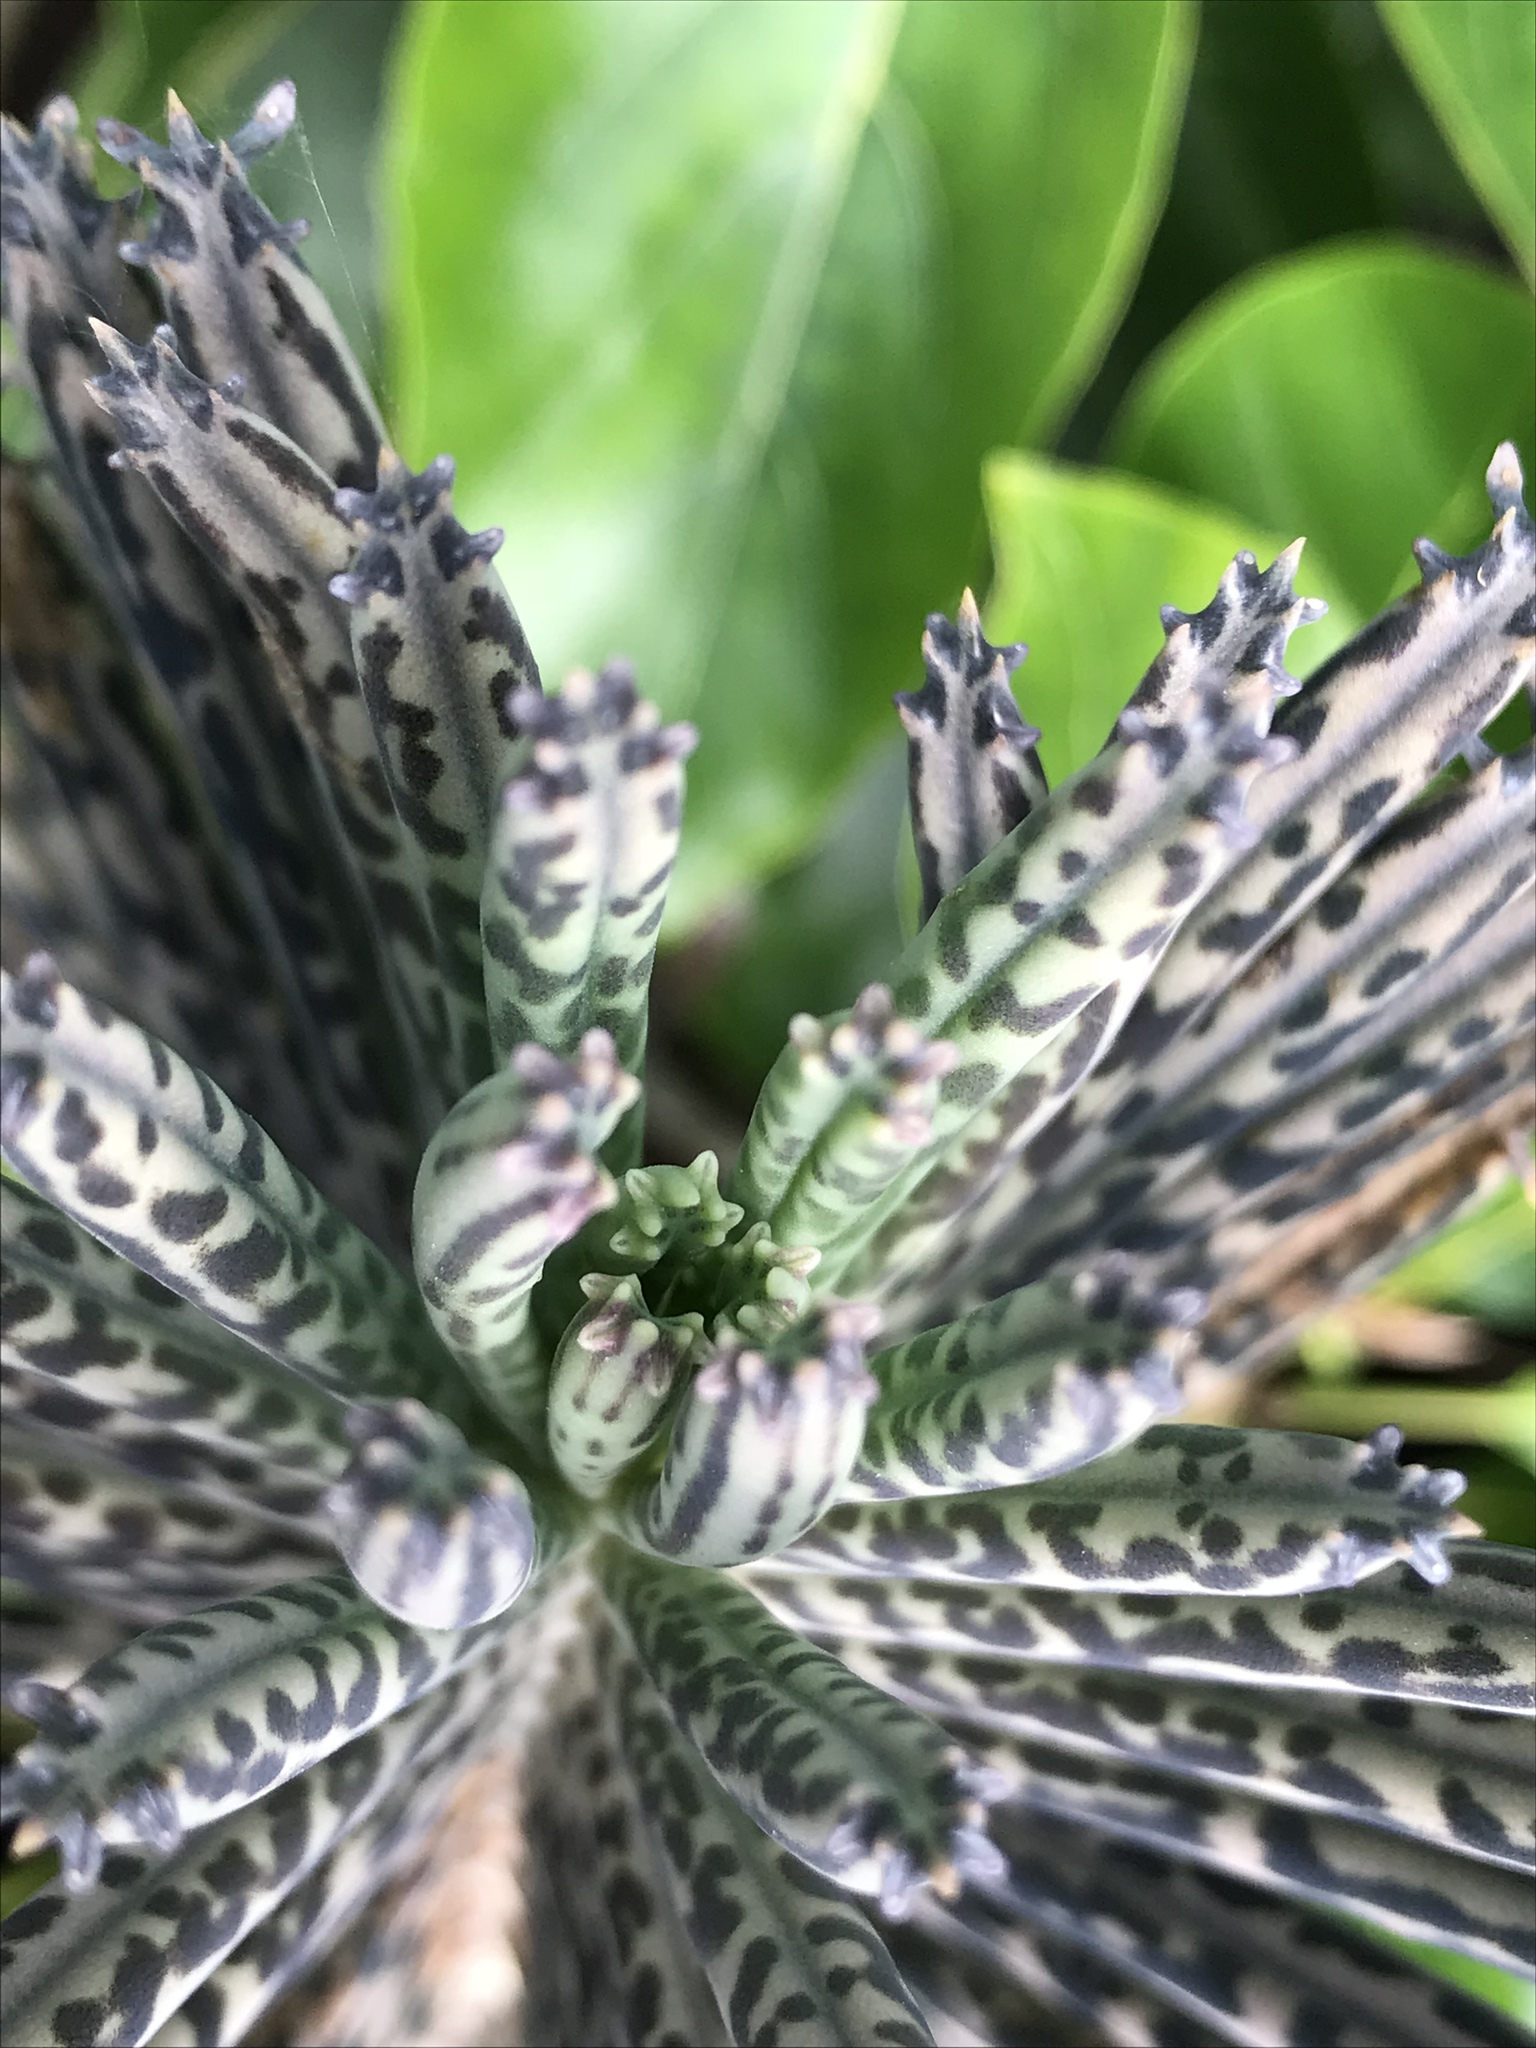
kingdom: Plantae
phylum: Tracheophyta
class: Magnoliopsida
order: Saxifragales
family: Crassulaceae
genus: Kalanchoe
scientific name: Kalanchoe delagoensis
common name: Chandelier plant
